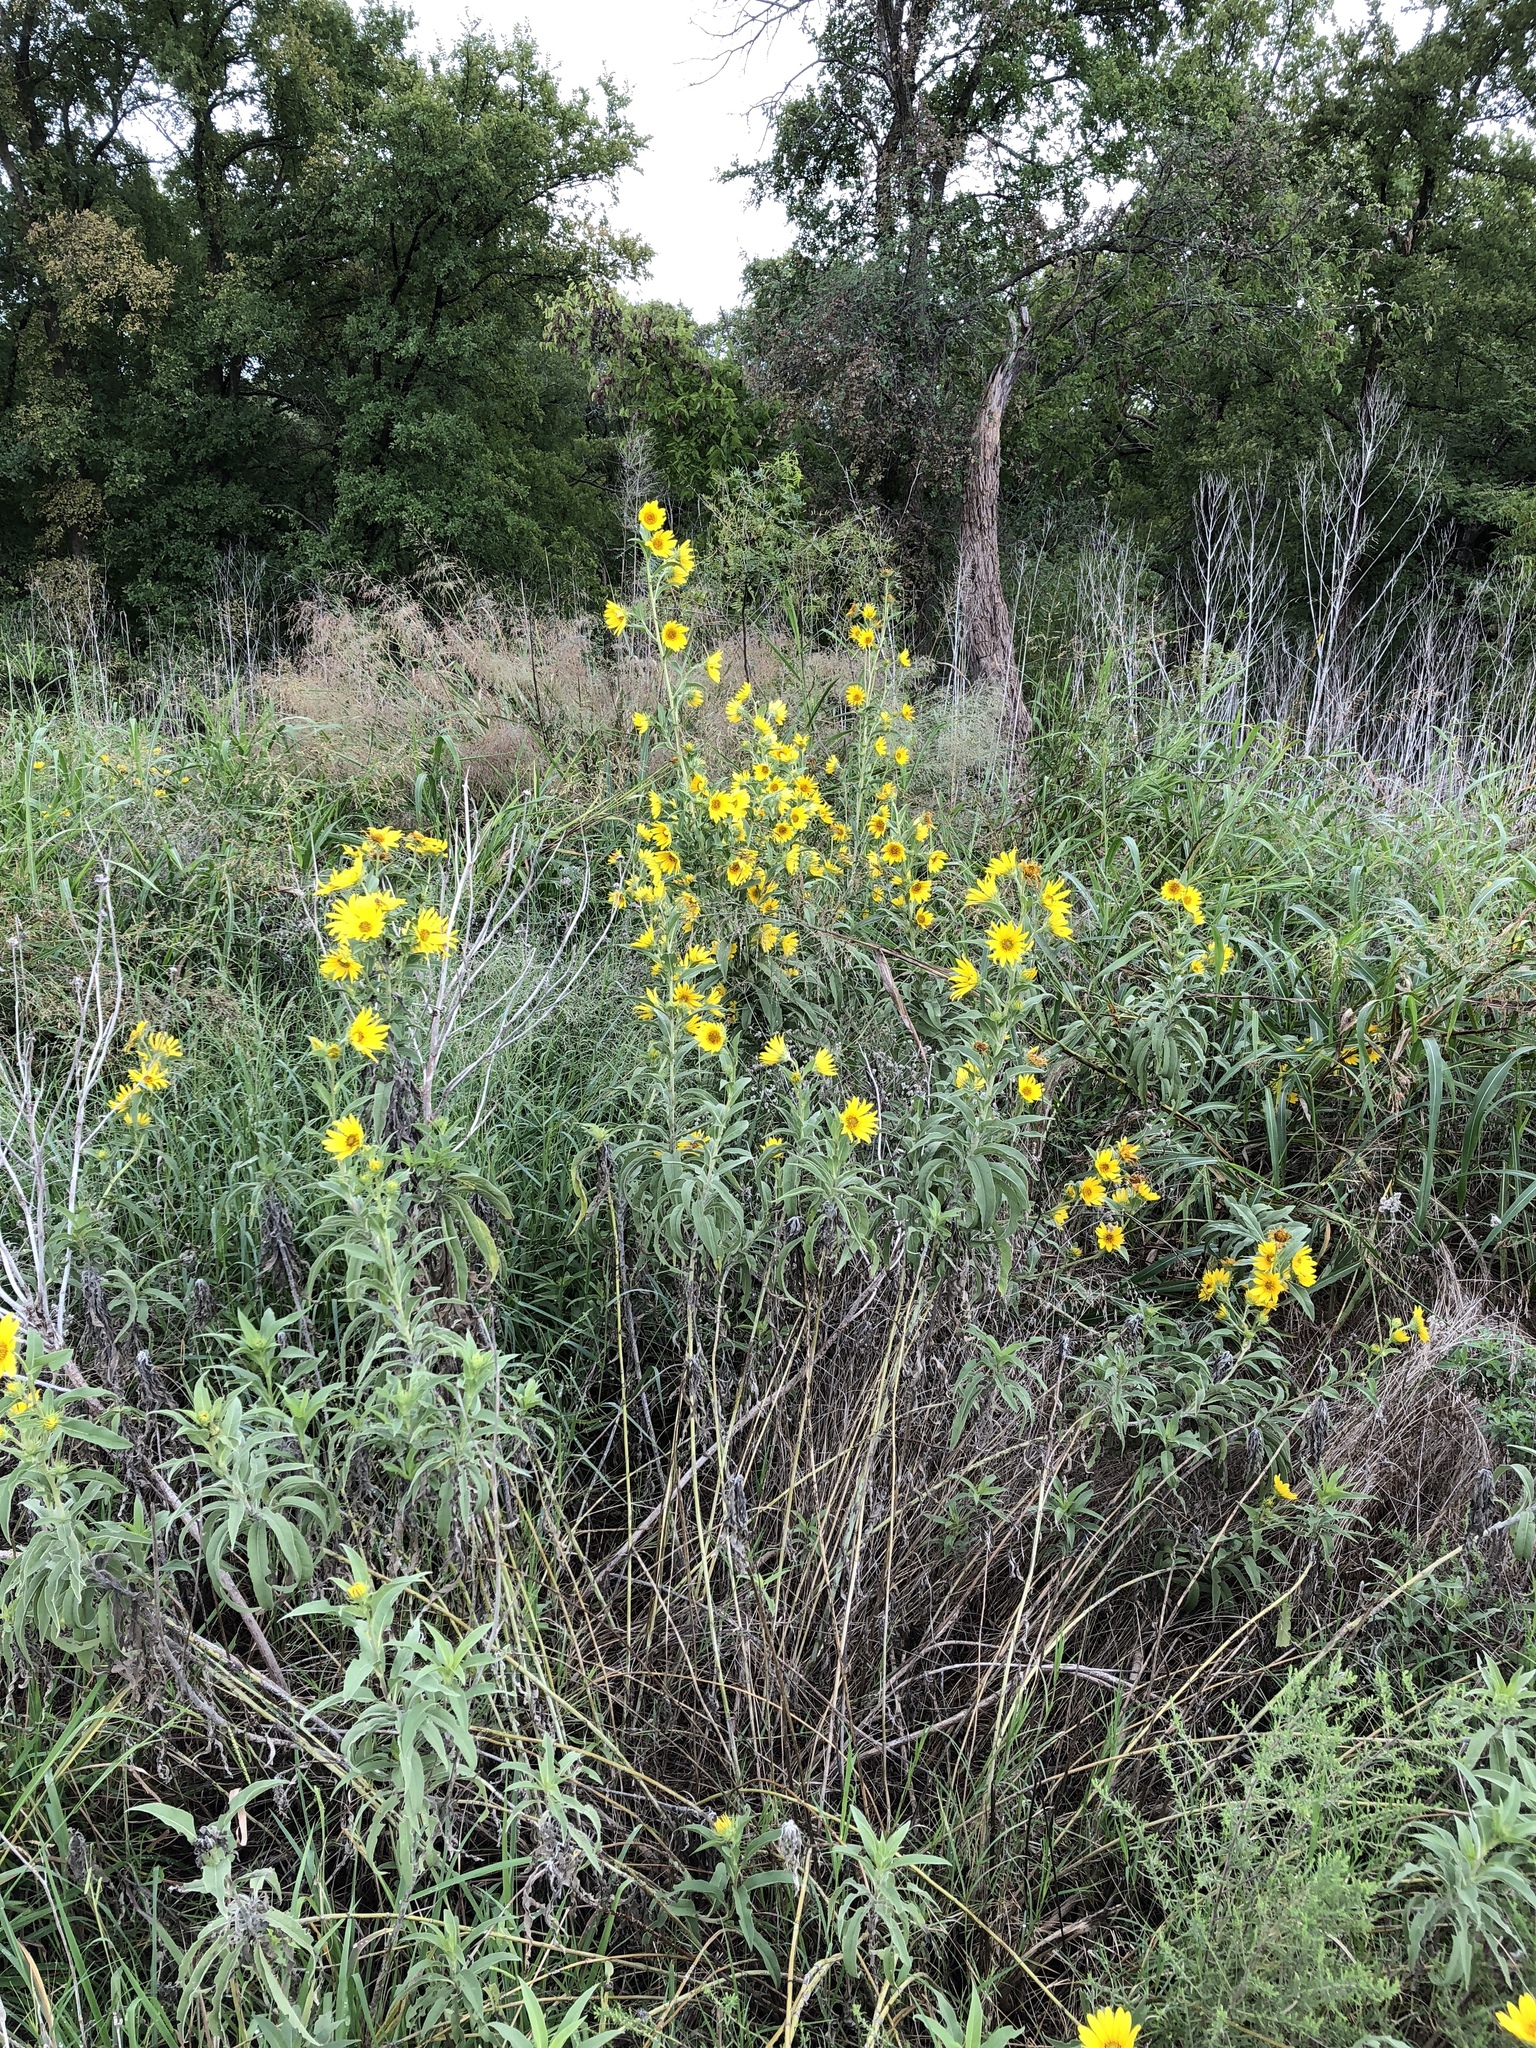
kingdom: Plantae
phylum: Tracheophyta
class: Magnoliopsida
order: Asterales
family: Asteraceae
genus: Helianthus
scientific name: Helianthus maximiliani
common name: Maximilian's sunflower
